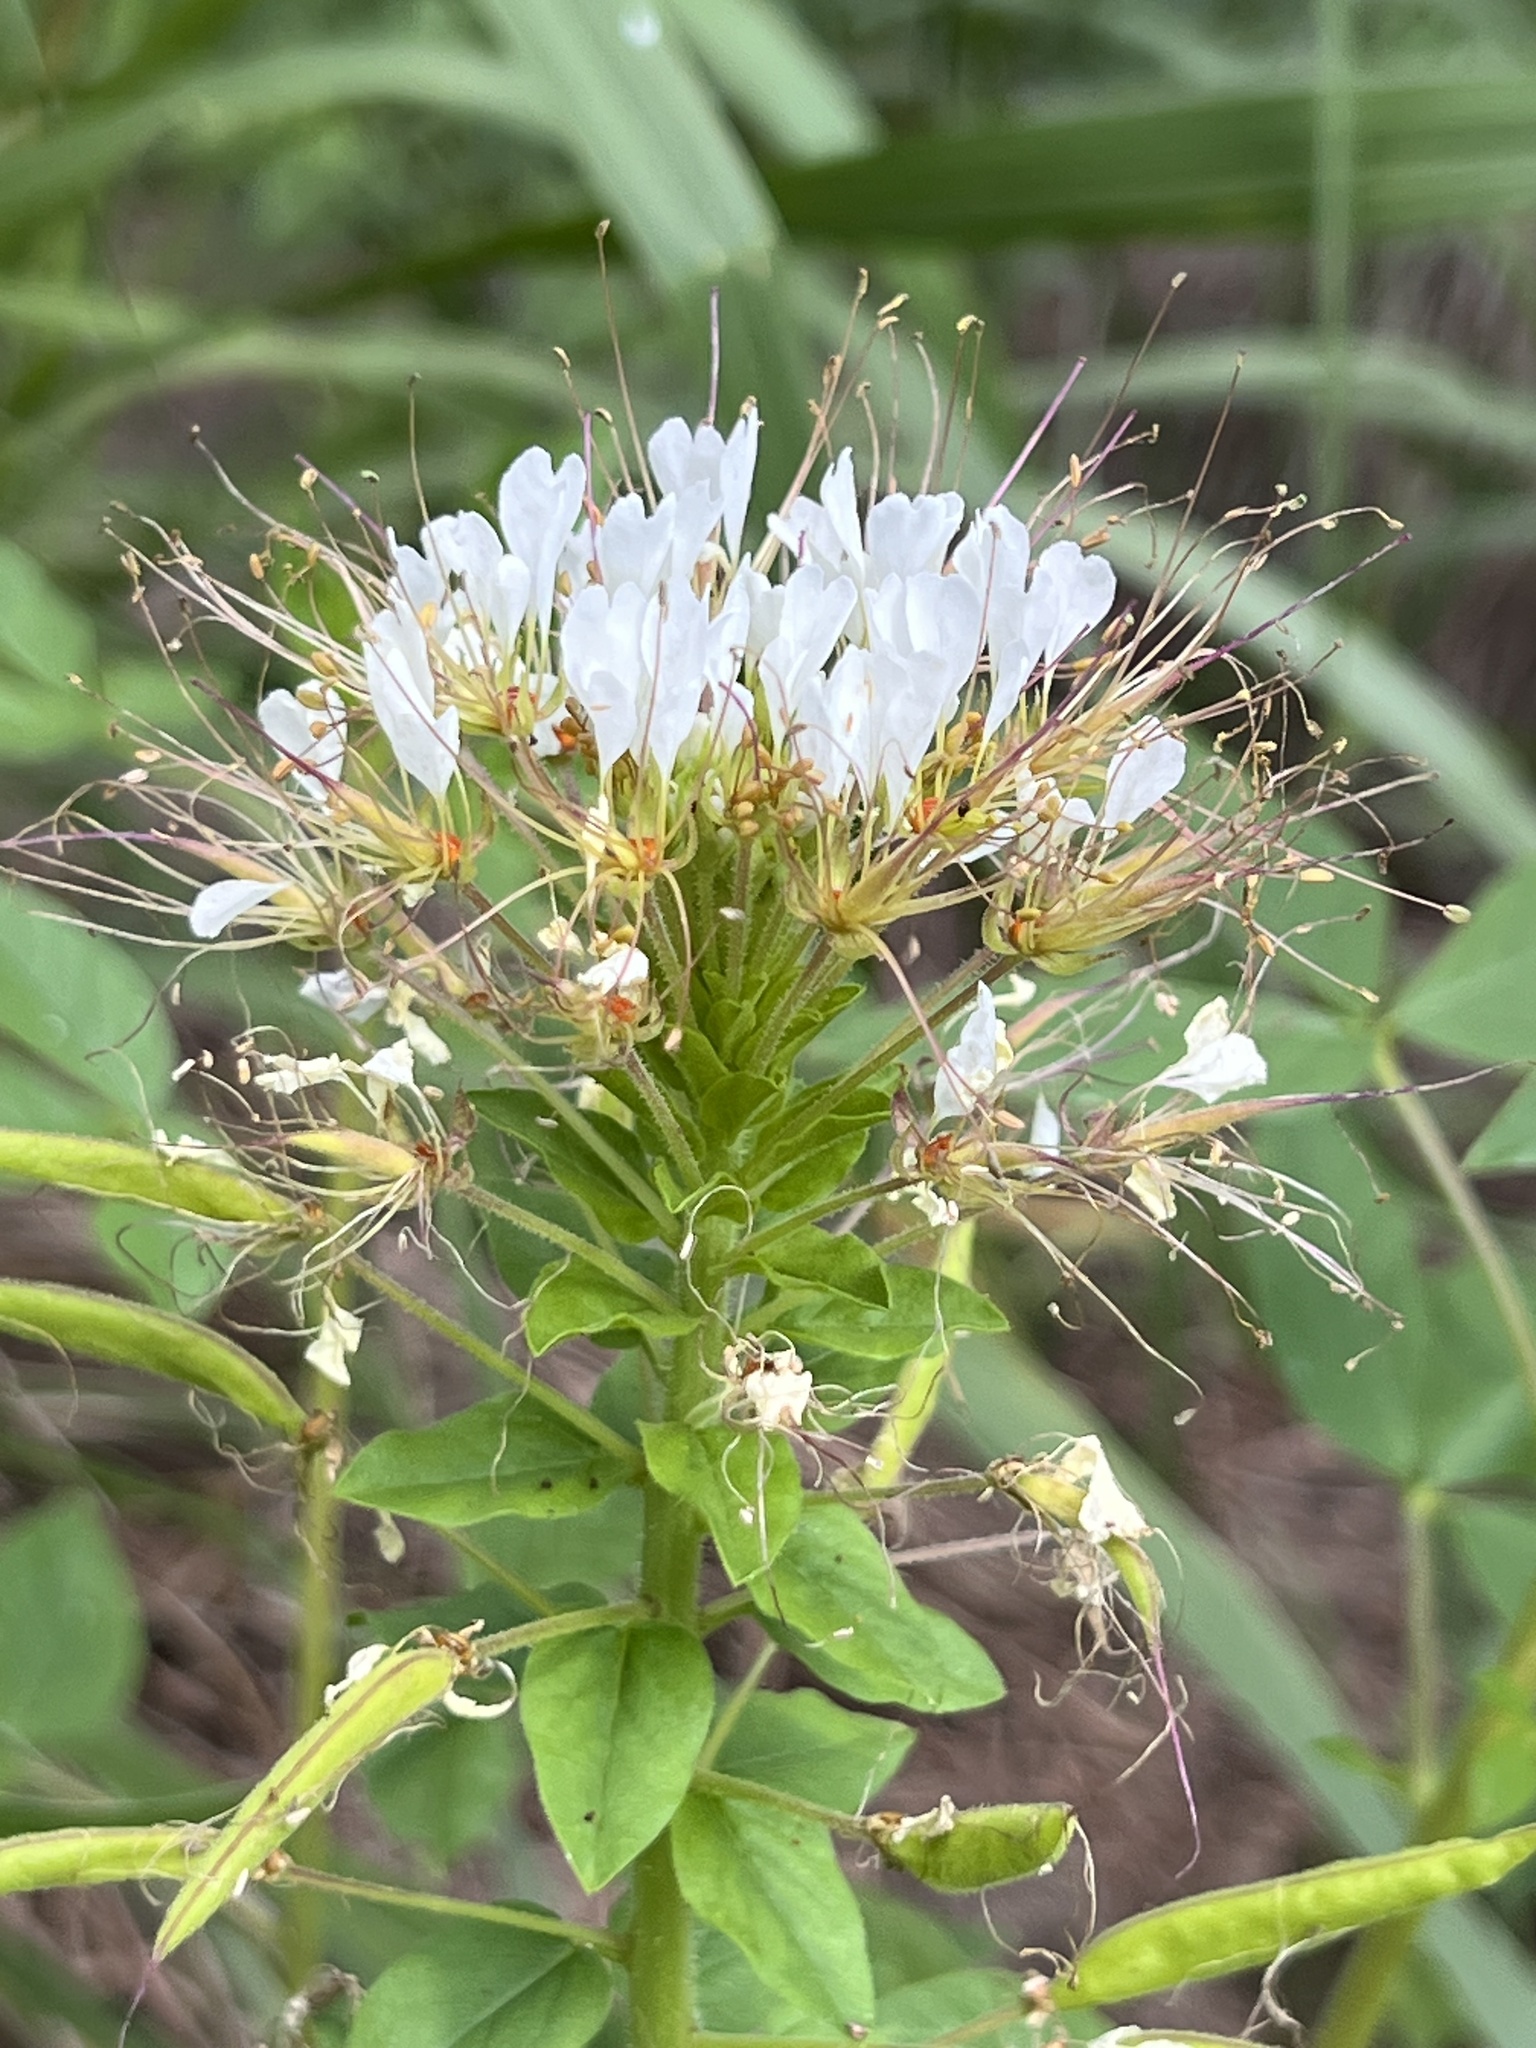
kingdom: Plantae
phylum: Tracheophyta
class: Magnoliopsida
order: Brassicales
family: Cleomaceae
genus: Polanisia
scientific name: Polanisia dodecandra
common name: Clammyweed
